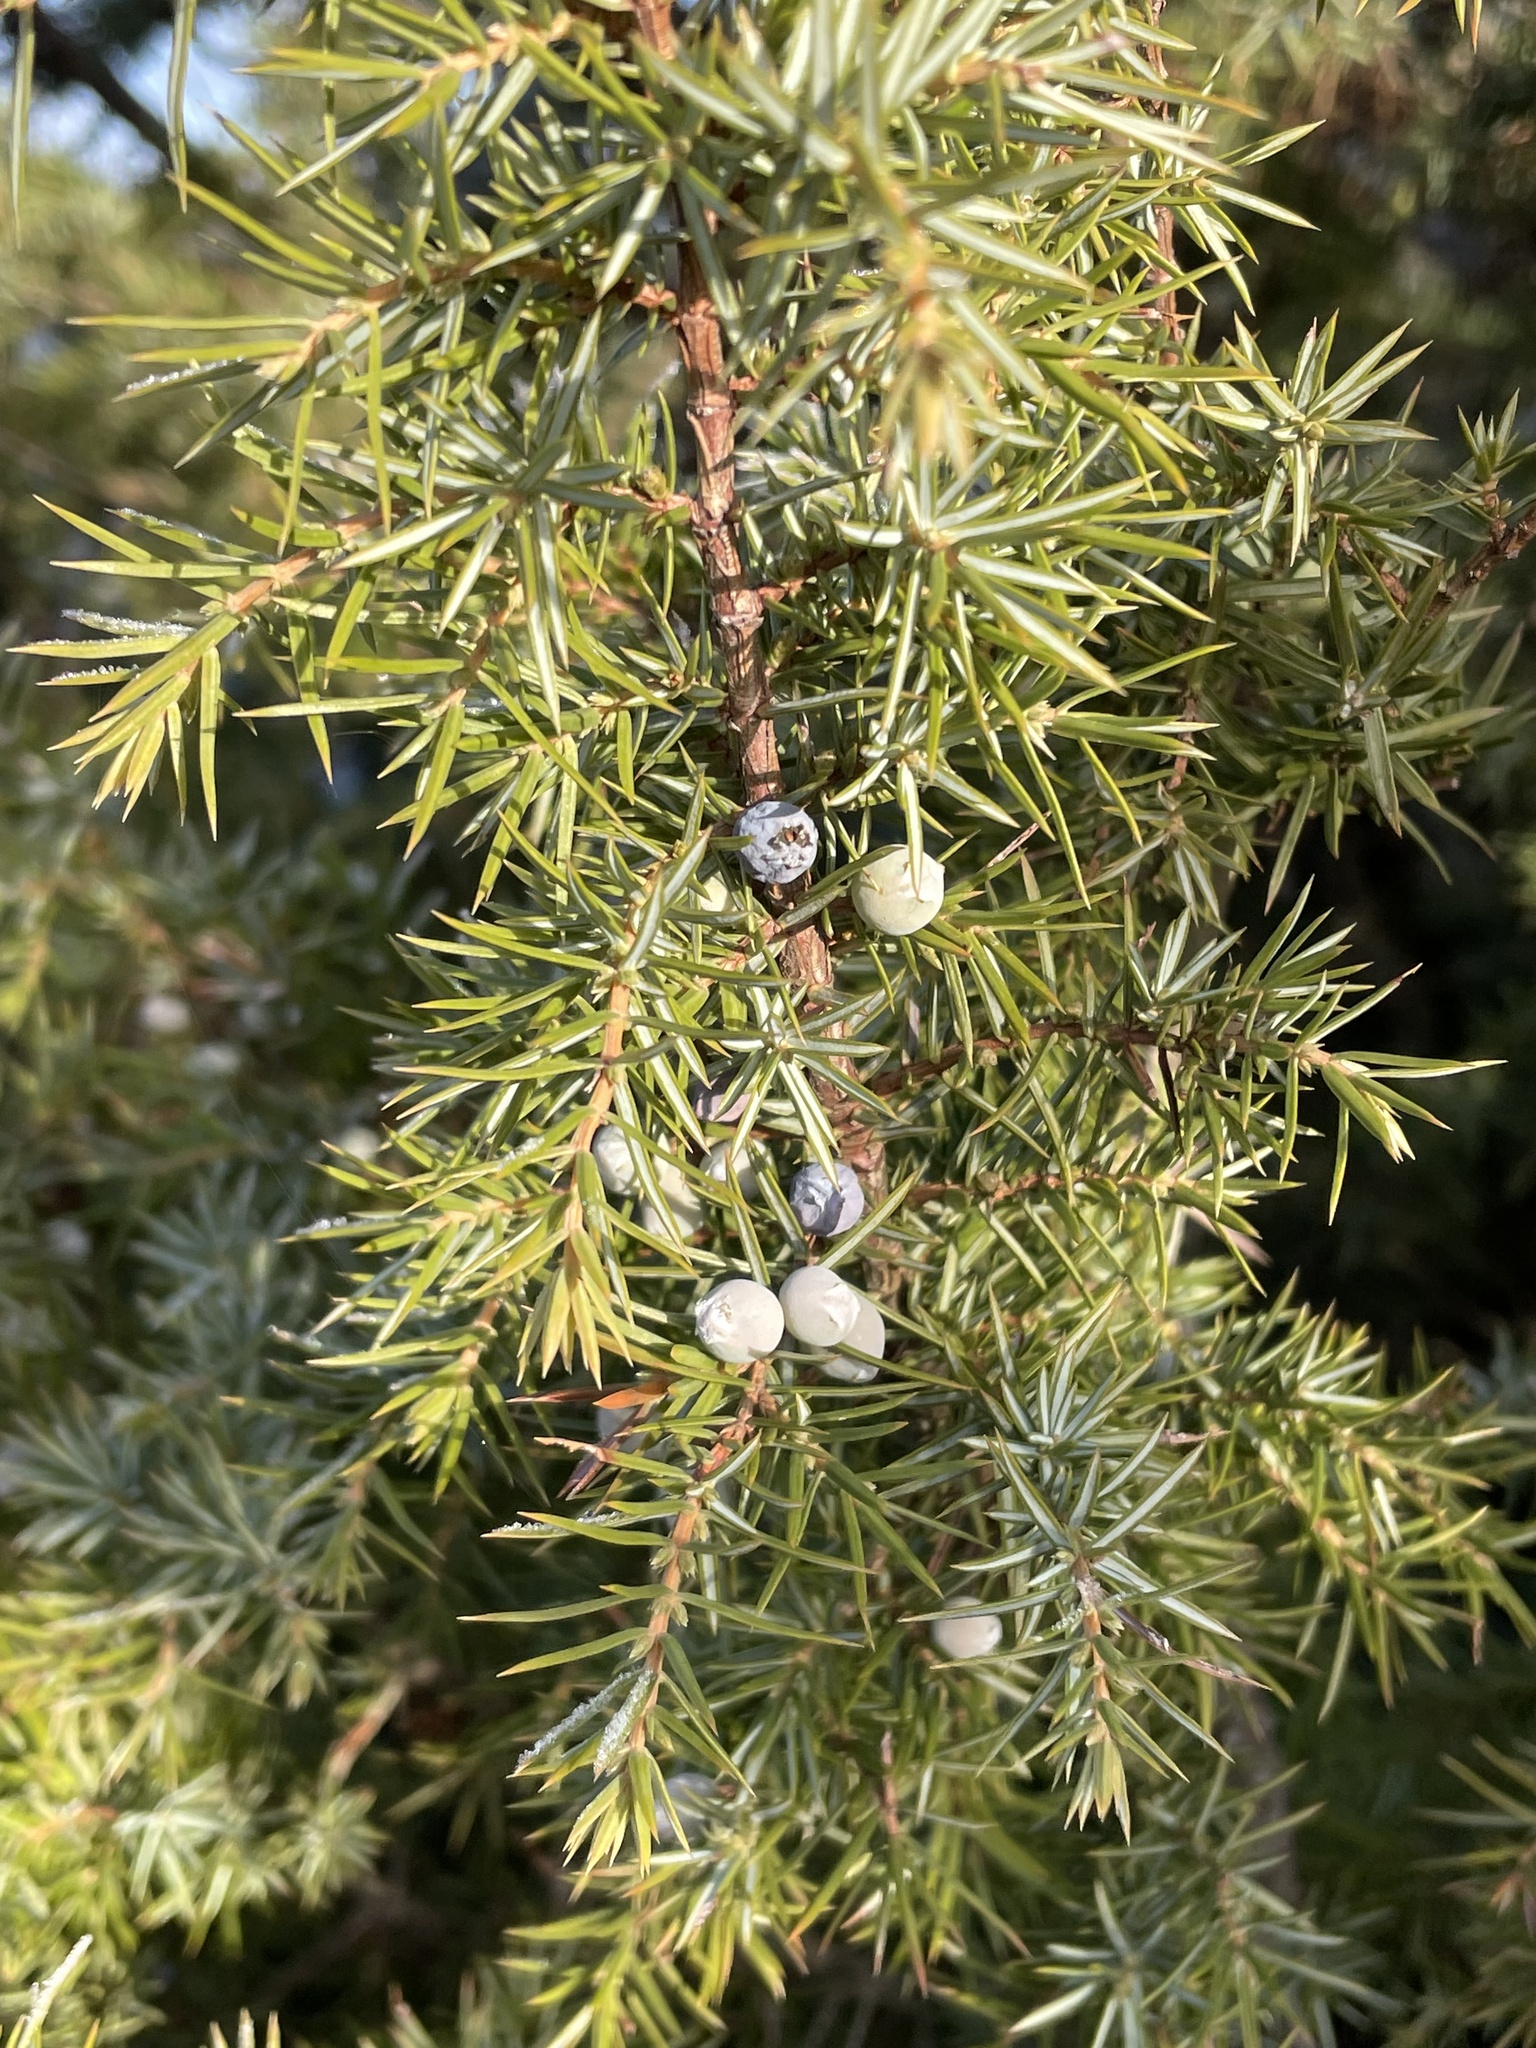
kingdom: Plantae
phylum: Tracheophyta
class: Pinopsida
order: Pinales
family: Cupressaceae
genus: Juniperus
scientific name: Juniperus communis
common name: Common juniper
